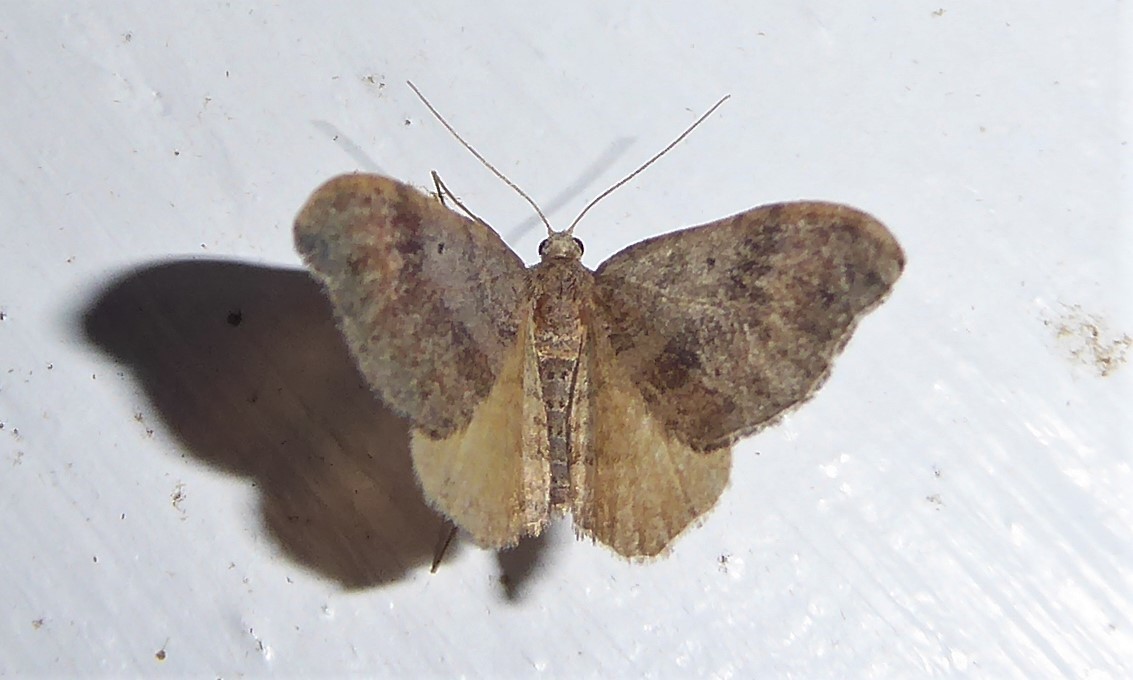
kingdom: Animalia
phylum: Arthropoda
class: Insecta
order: Lepidoptera
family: Geometridae
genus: Homodotis
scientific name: Homodotis megaspilata
